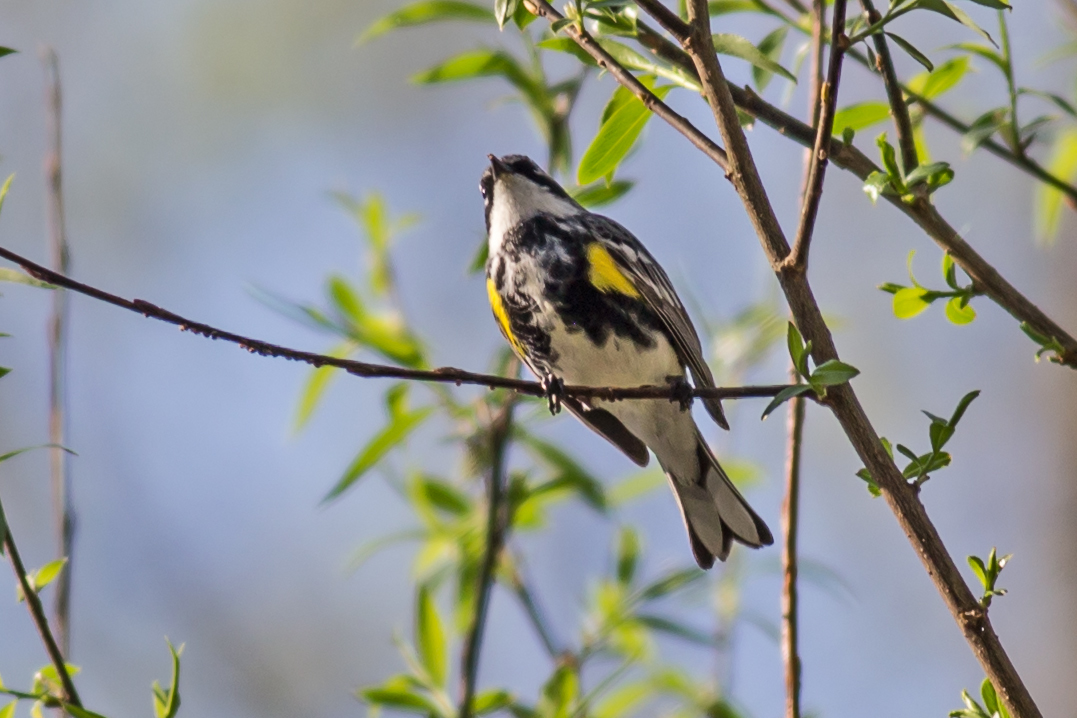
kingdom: Animalia
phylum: Chordata
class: Aves
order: Passeriformes
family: Parulidae
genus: Setophaga
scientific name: Setophaga coronata
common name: Myrtle warbler
